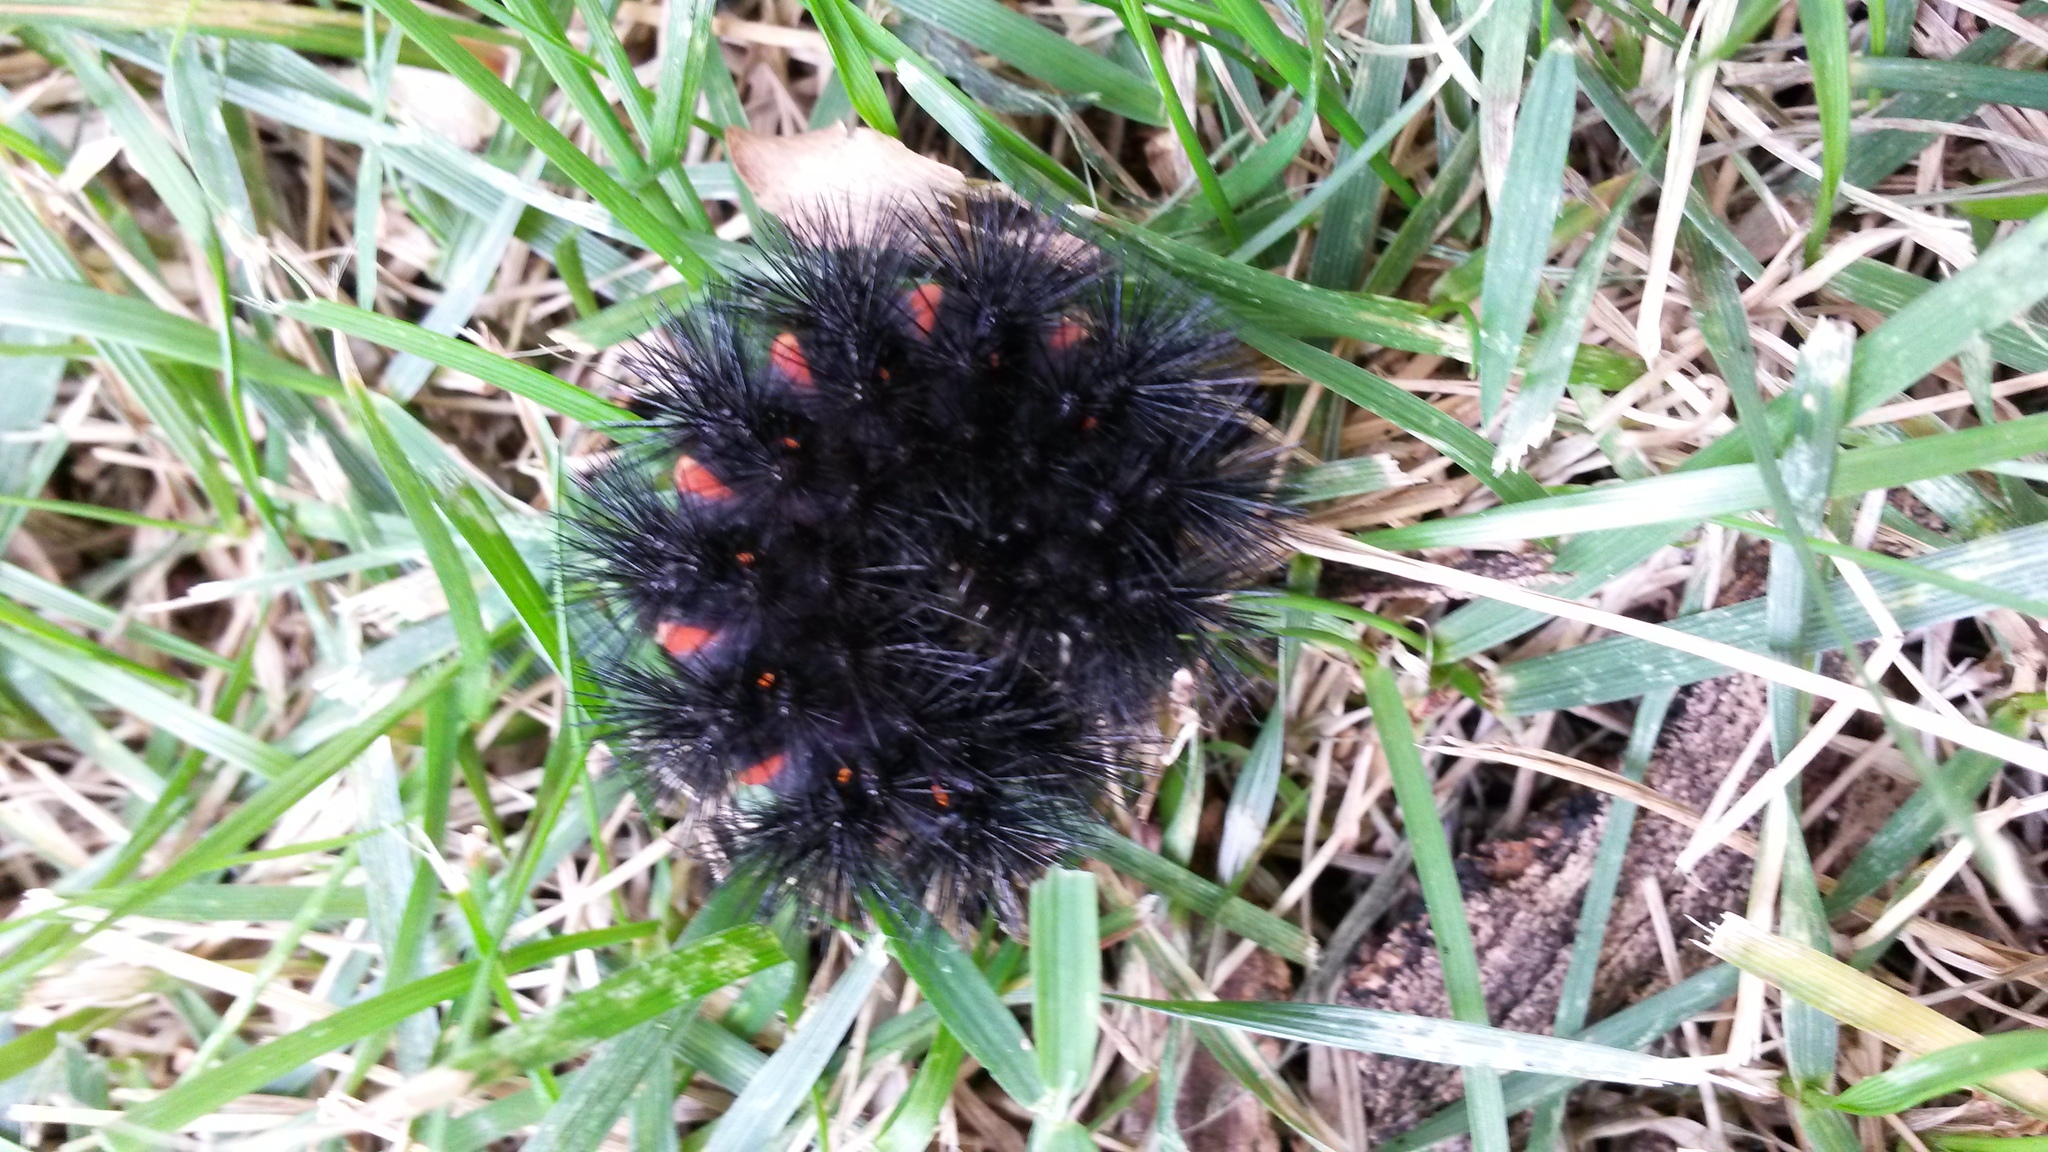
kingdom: Animalia
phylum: Arthropoda
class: Insecta
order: Lepidoptera
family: Erebidae
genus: Hypercompe
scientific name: Hypercompe scribonia
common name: Giant leopard moth
